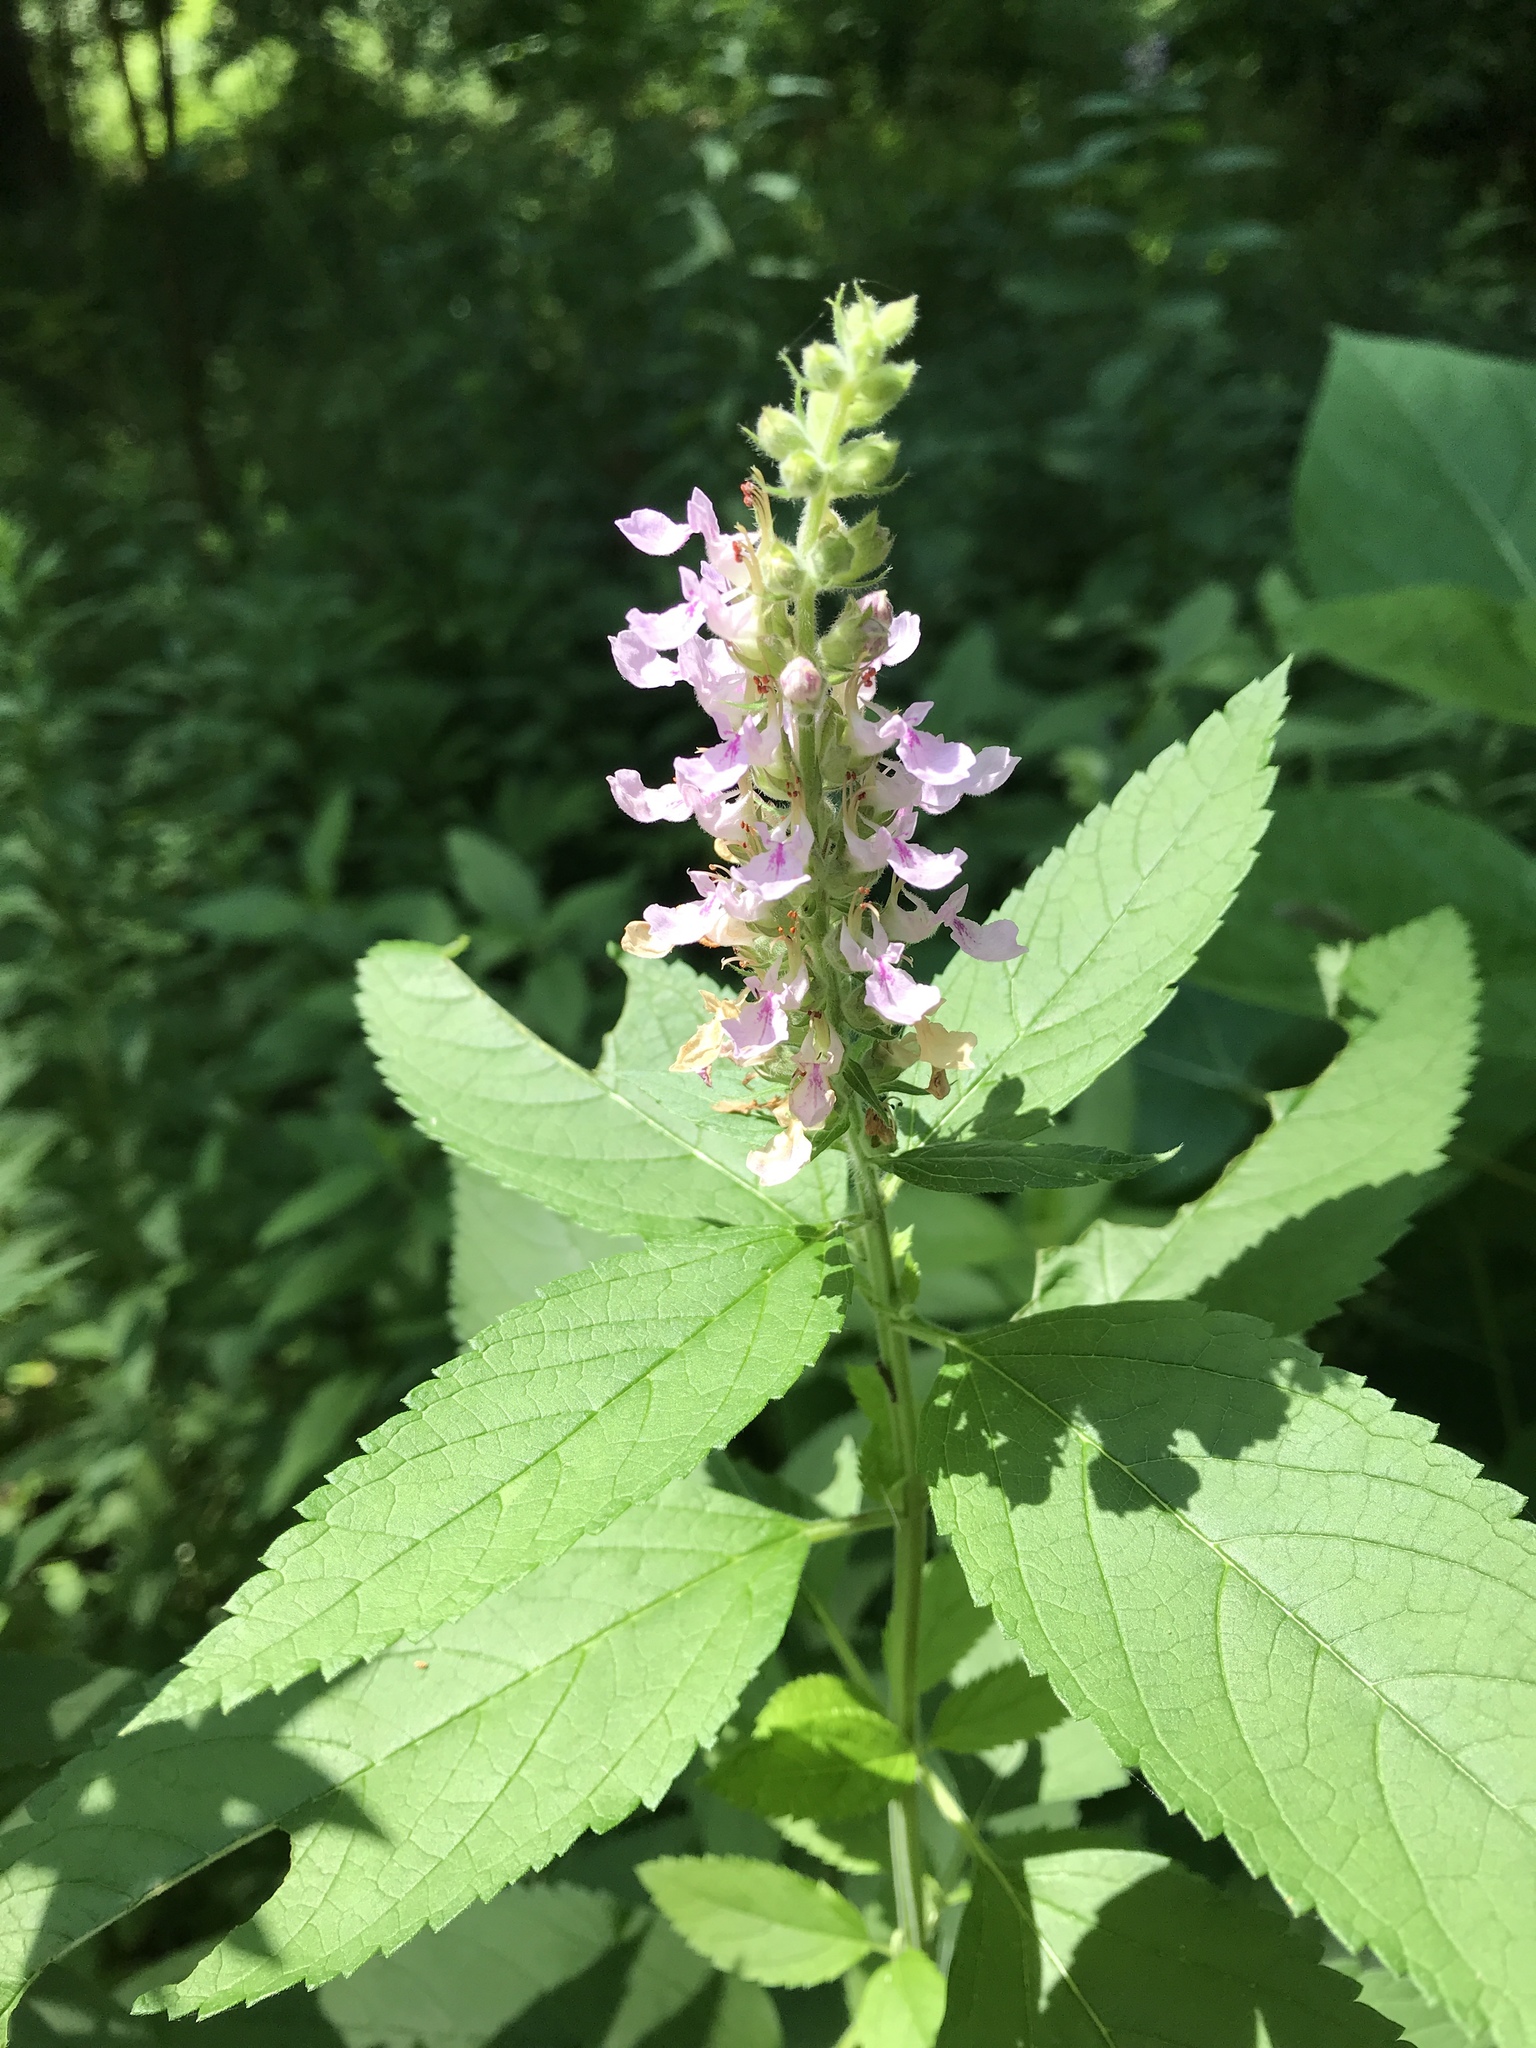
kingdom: Plantae
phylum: Tracheophyta
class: Magnoliopsida
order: Lamiales
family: Lamiaceae
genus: Teucrium
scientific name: Teucrium canadense
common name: American germander
